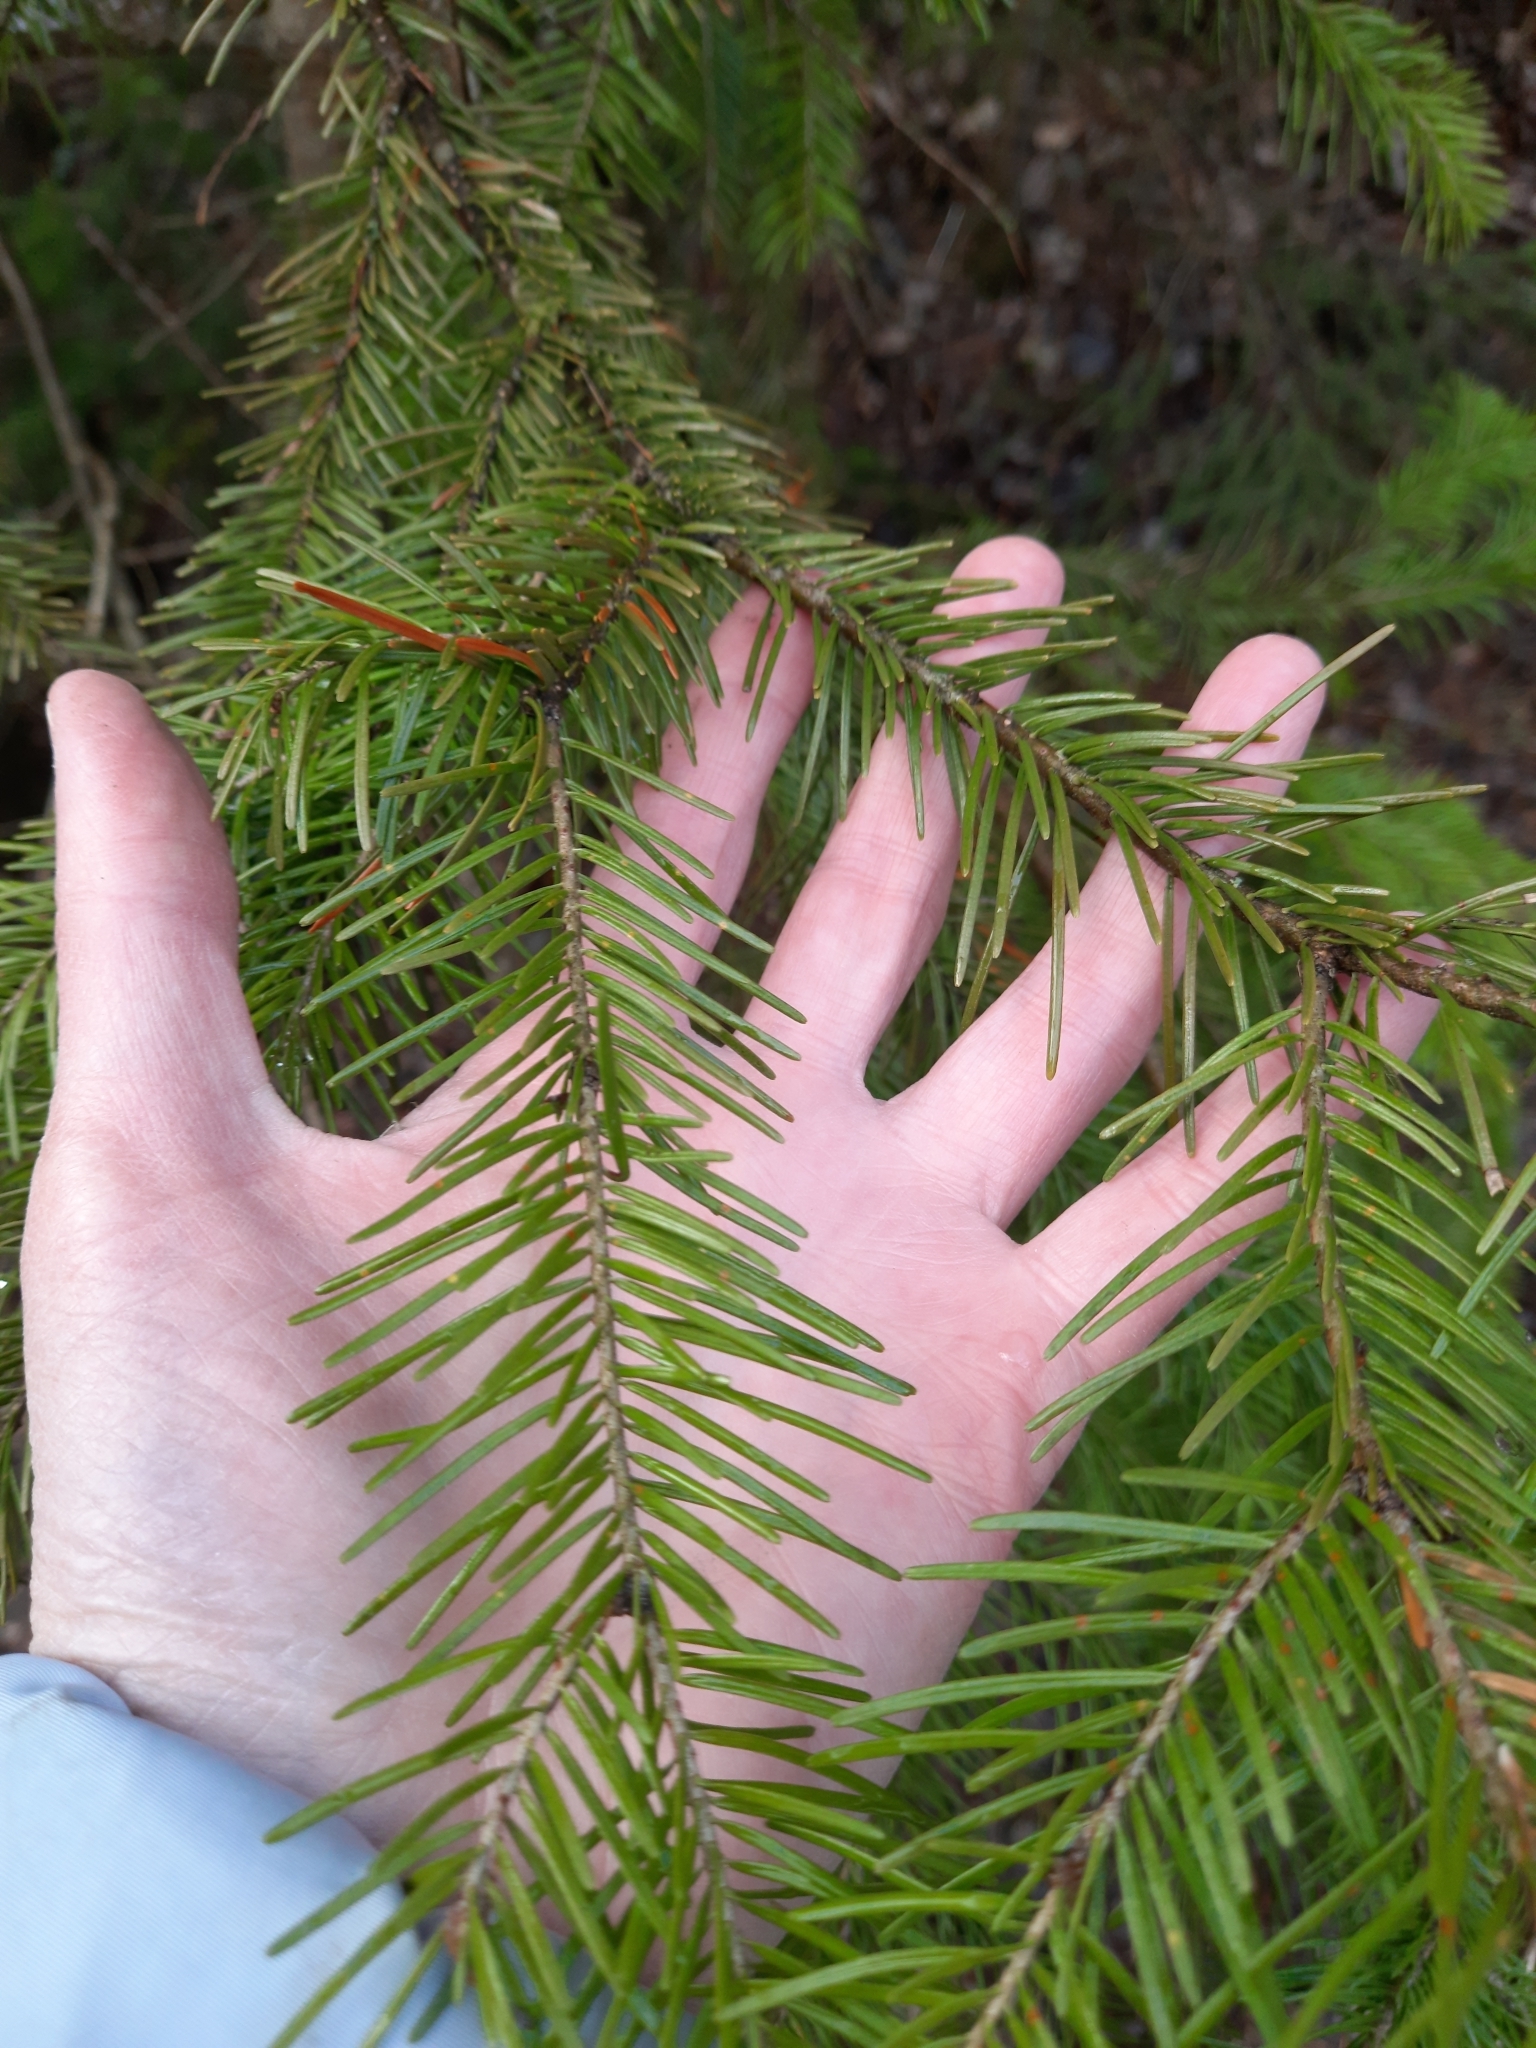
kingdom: Plantae
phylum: Tracheophyta
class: Pinopsida
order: Pinales
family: Pinaceae
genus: Abies
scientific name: Abies sibirica
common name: Siberian fir
